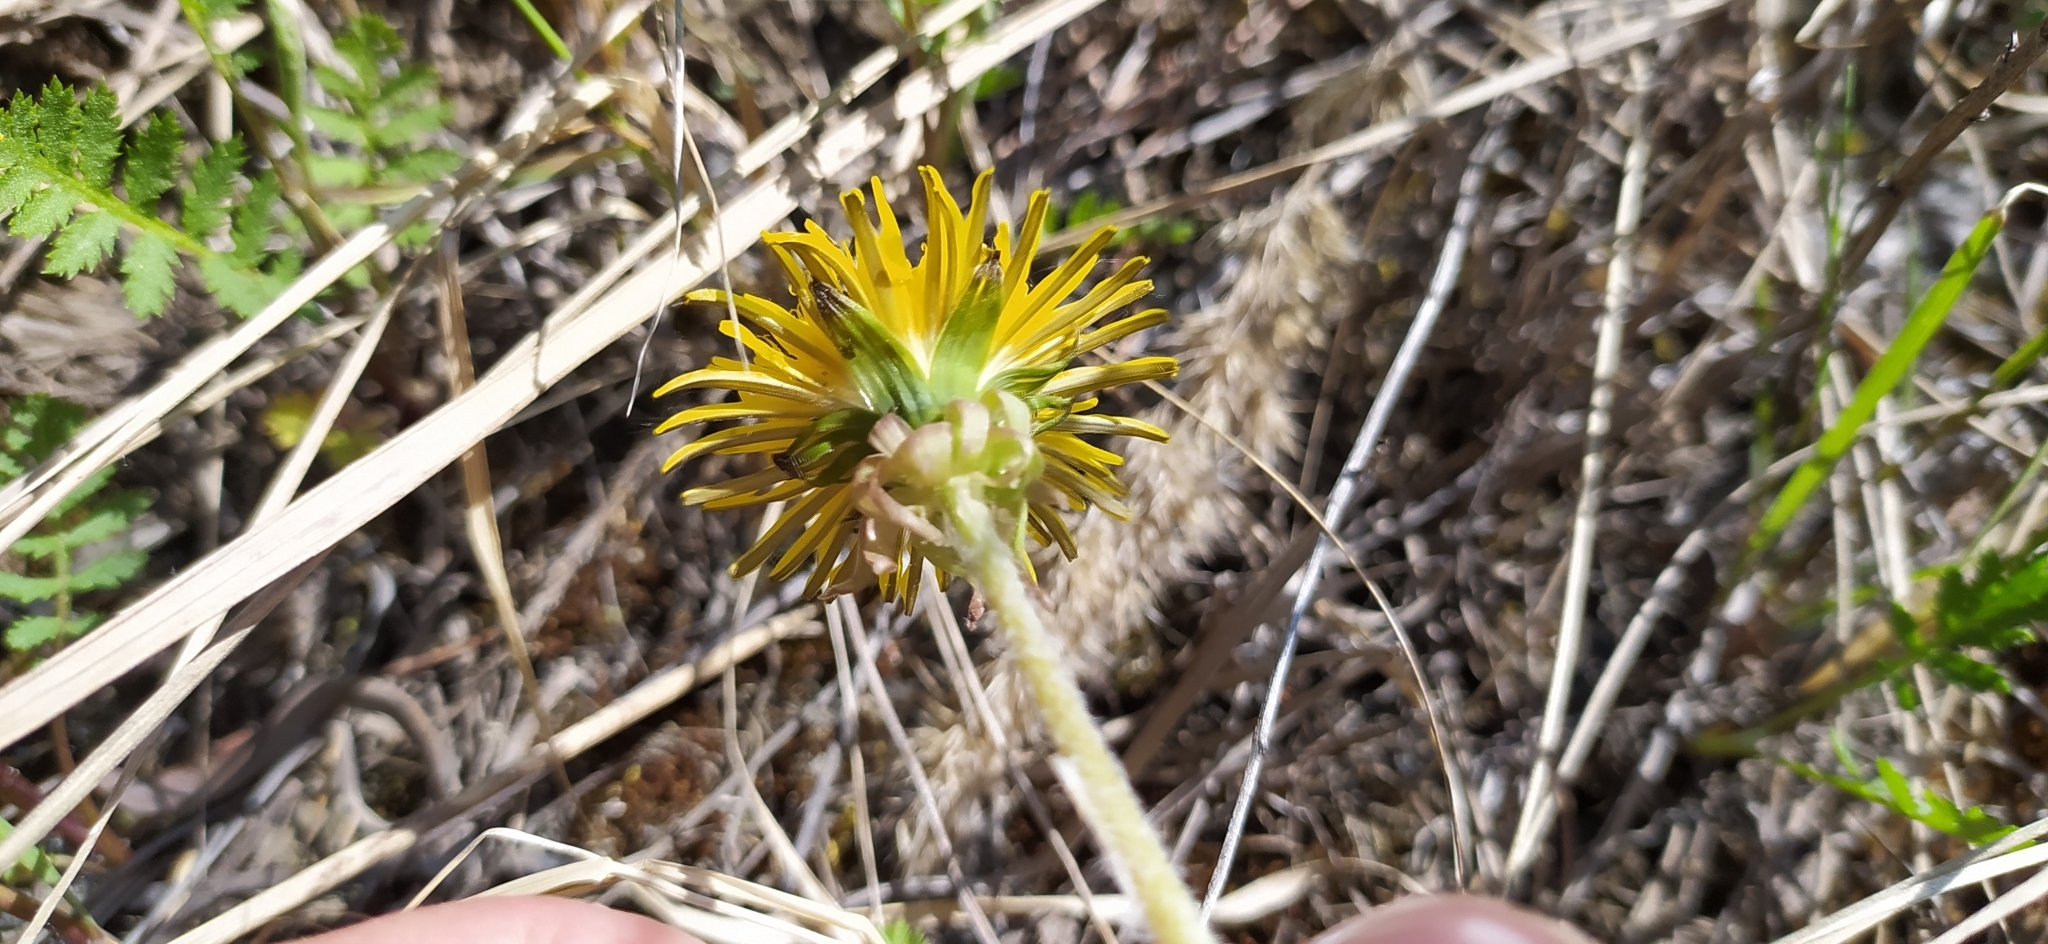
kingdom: Plantae
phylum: Tracheophyta
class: Magnoliopsida
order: Asterales
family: Asteraceae
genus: Taraxacum
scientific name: Taraxacum officinale
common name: Common dandelion
